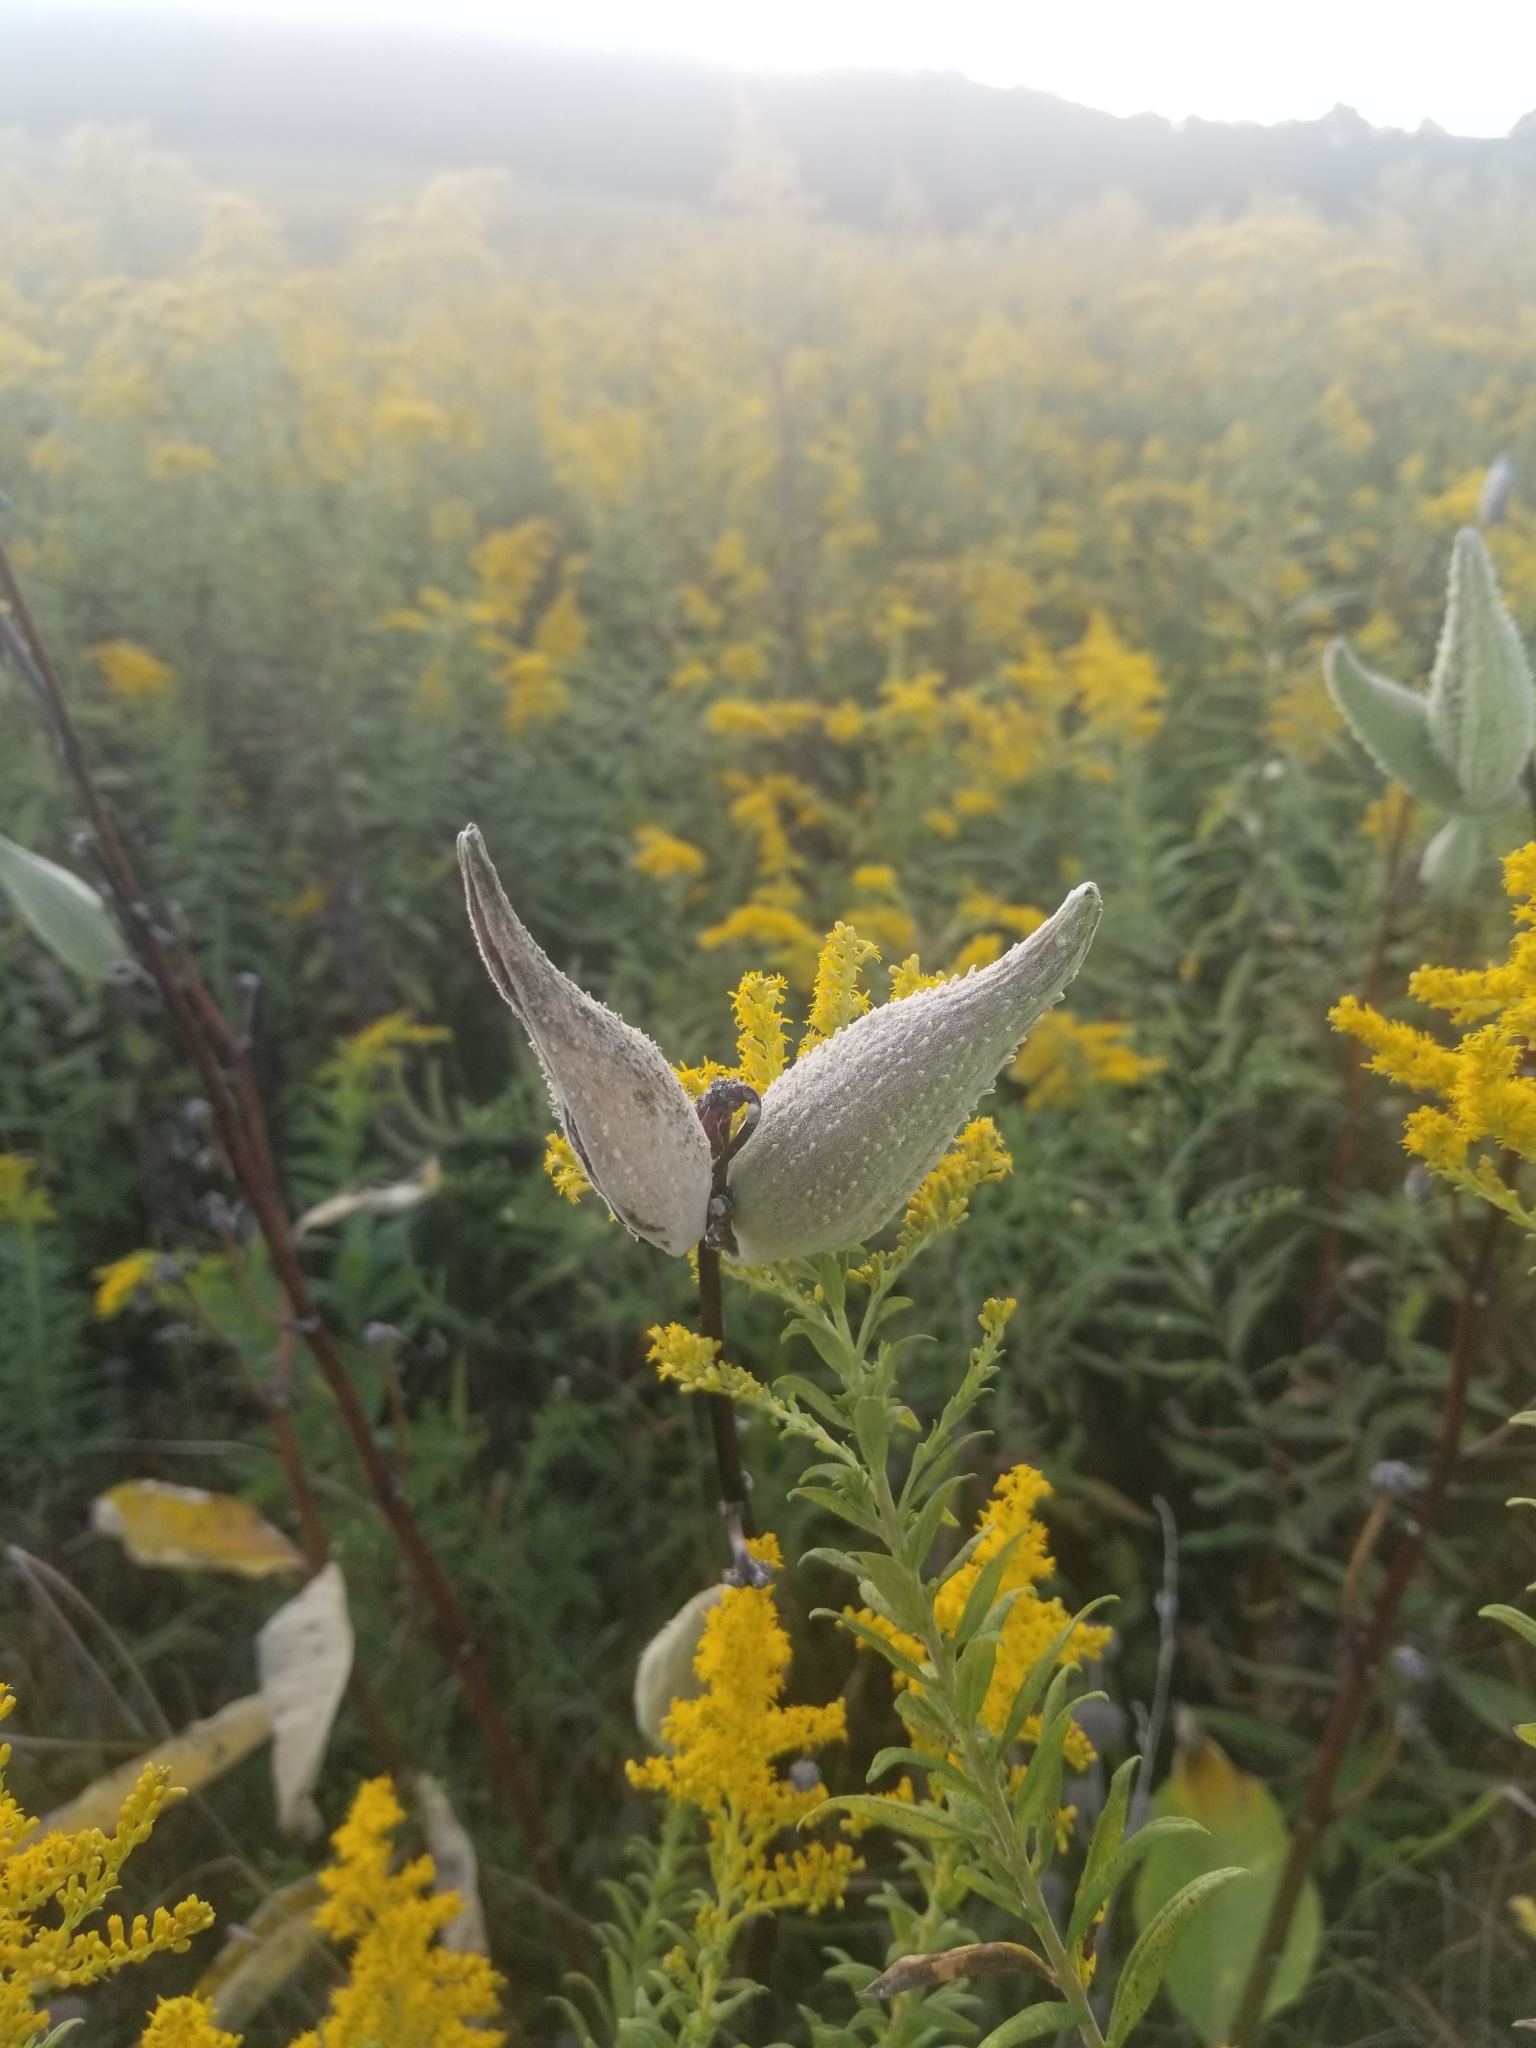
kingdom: Plantae
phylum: Tracheophyta
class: Magnoliopsida
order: Gentianales
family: Apocynaceae
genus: Asclepias
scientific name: Asclepias syriaca
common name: Common milkweed
